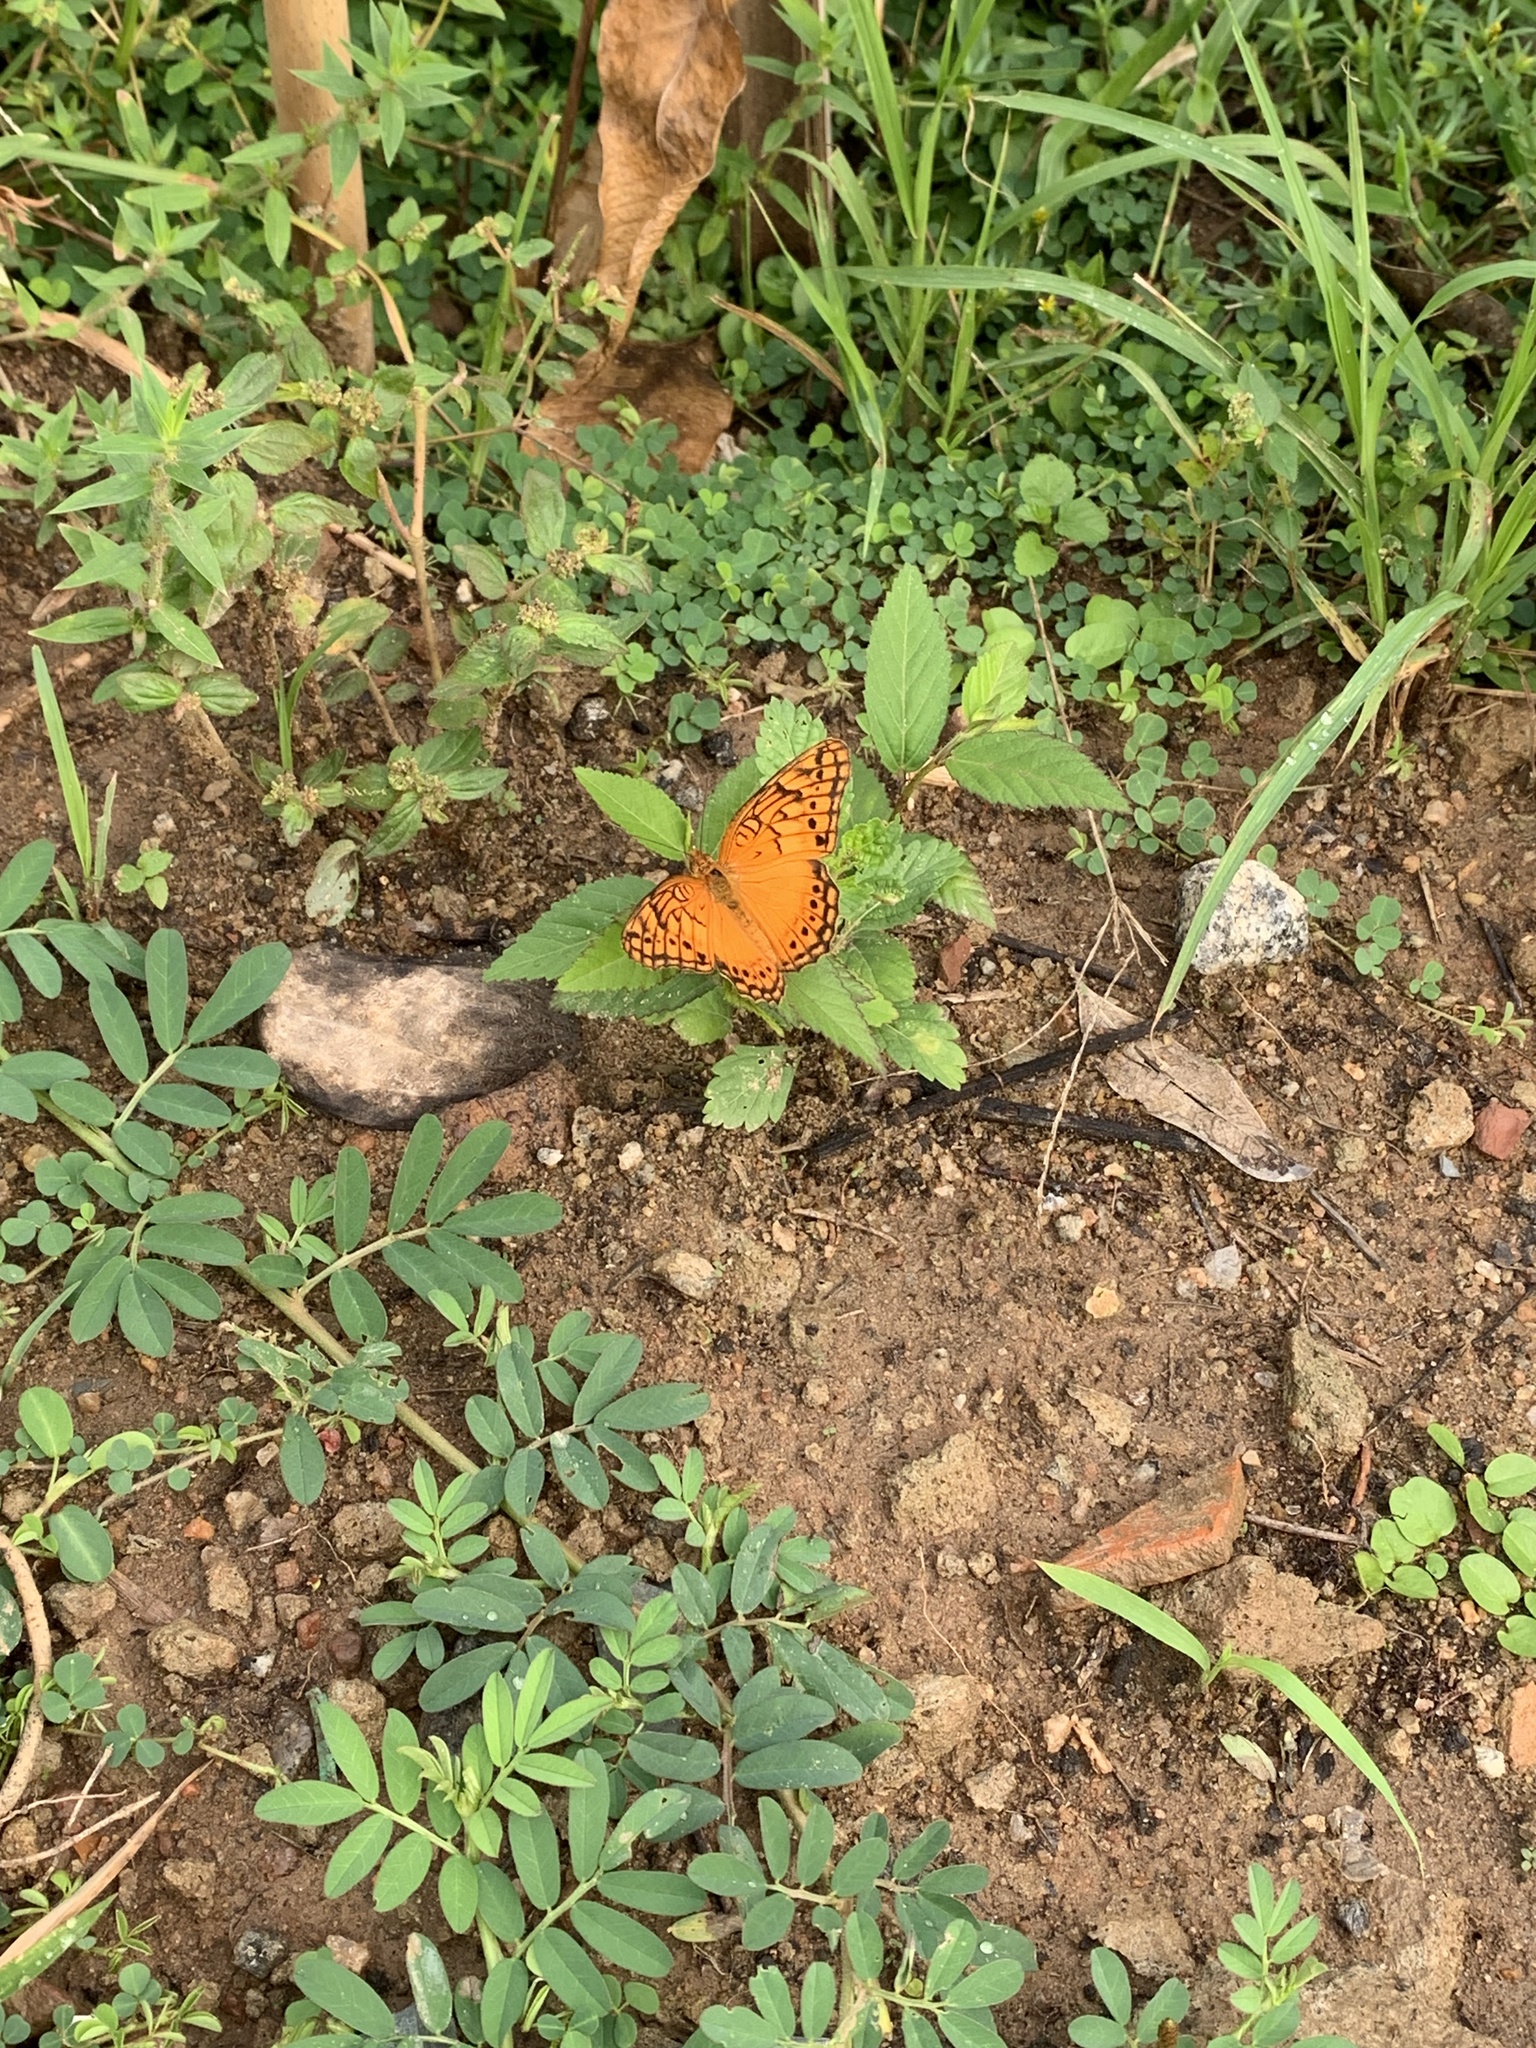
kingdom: Animalia
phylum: Arthropoda
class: Insecta
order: Lepidoptera
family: Nymphalidae
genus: Euptoieta
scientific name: Euptoieta hegesia
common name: Mexican fritillary
